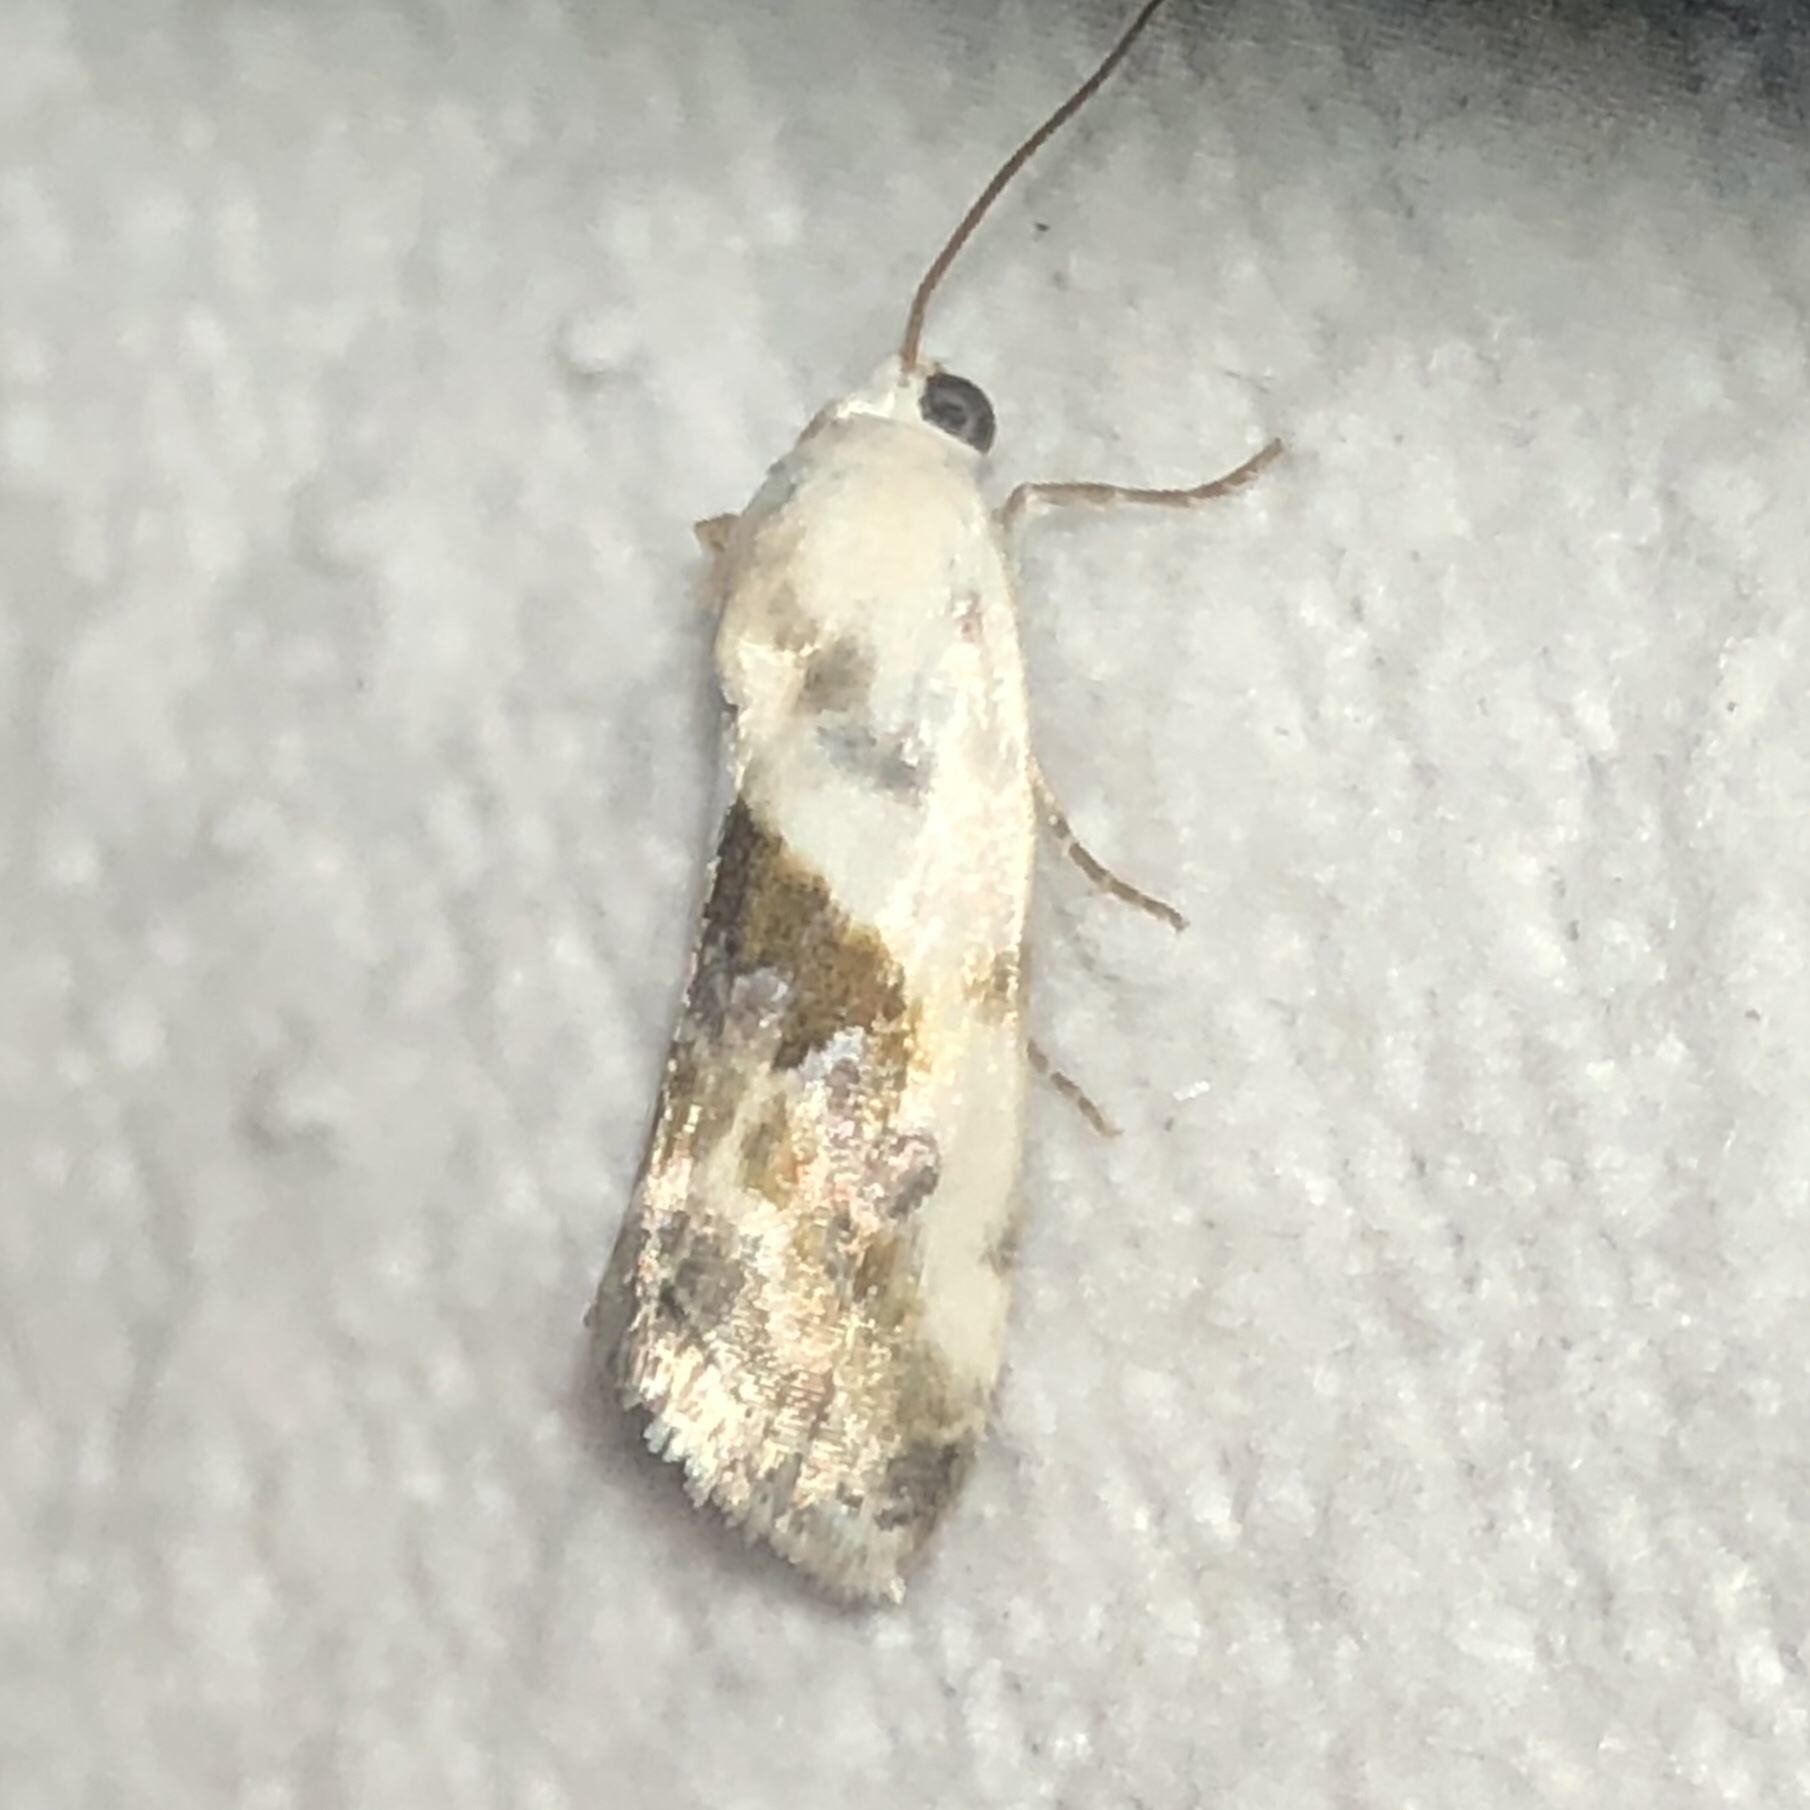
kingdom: Animalia
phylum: Arthropoda
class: Insecta
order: Lepidoptera
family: Noctuidae
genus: Acontia
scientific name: Acontia candefacta
